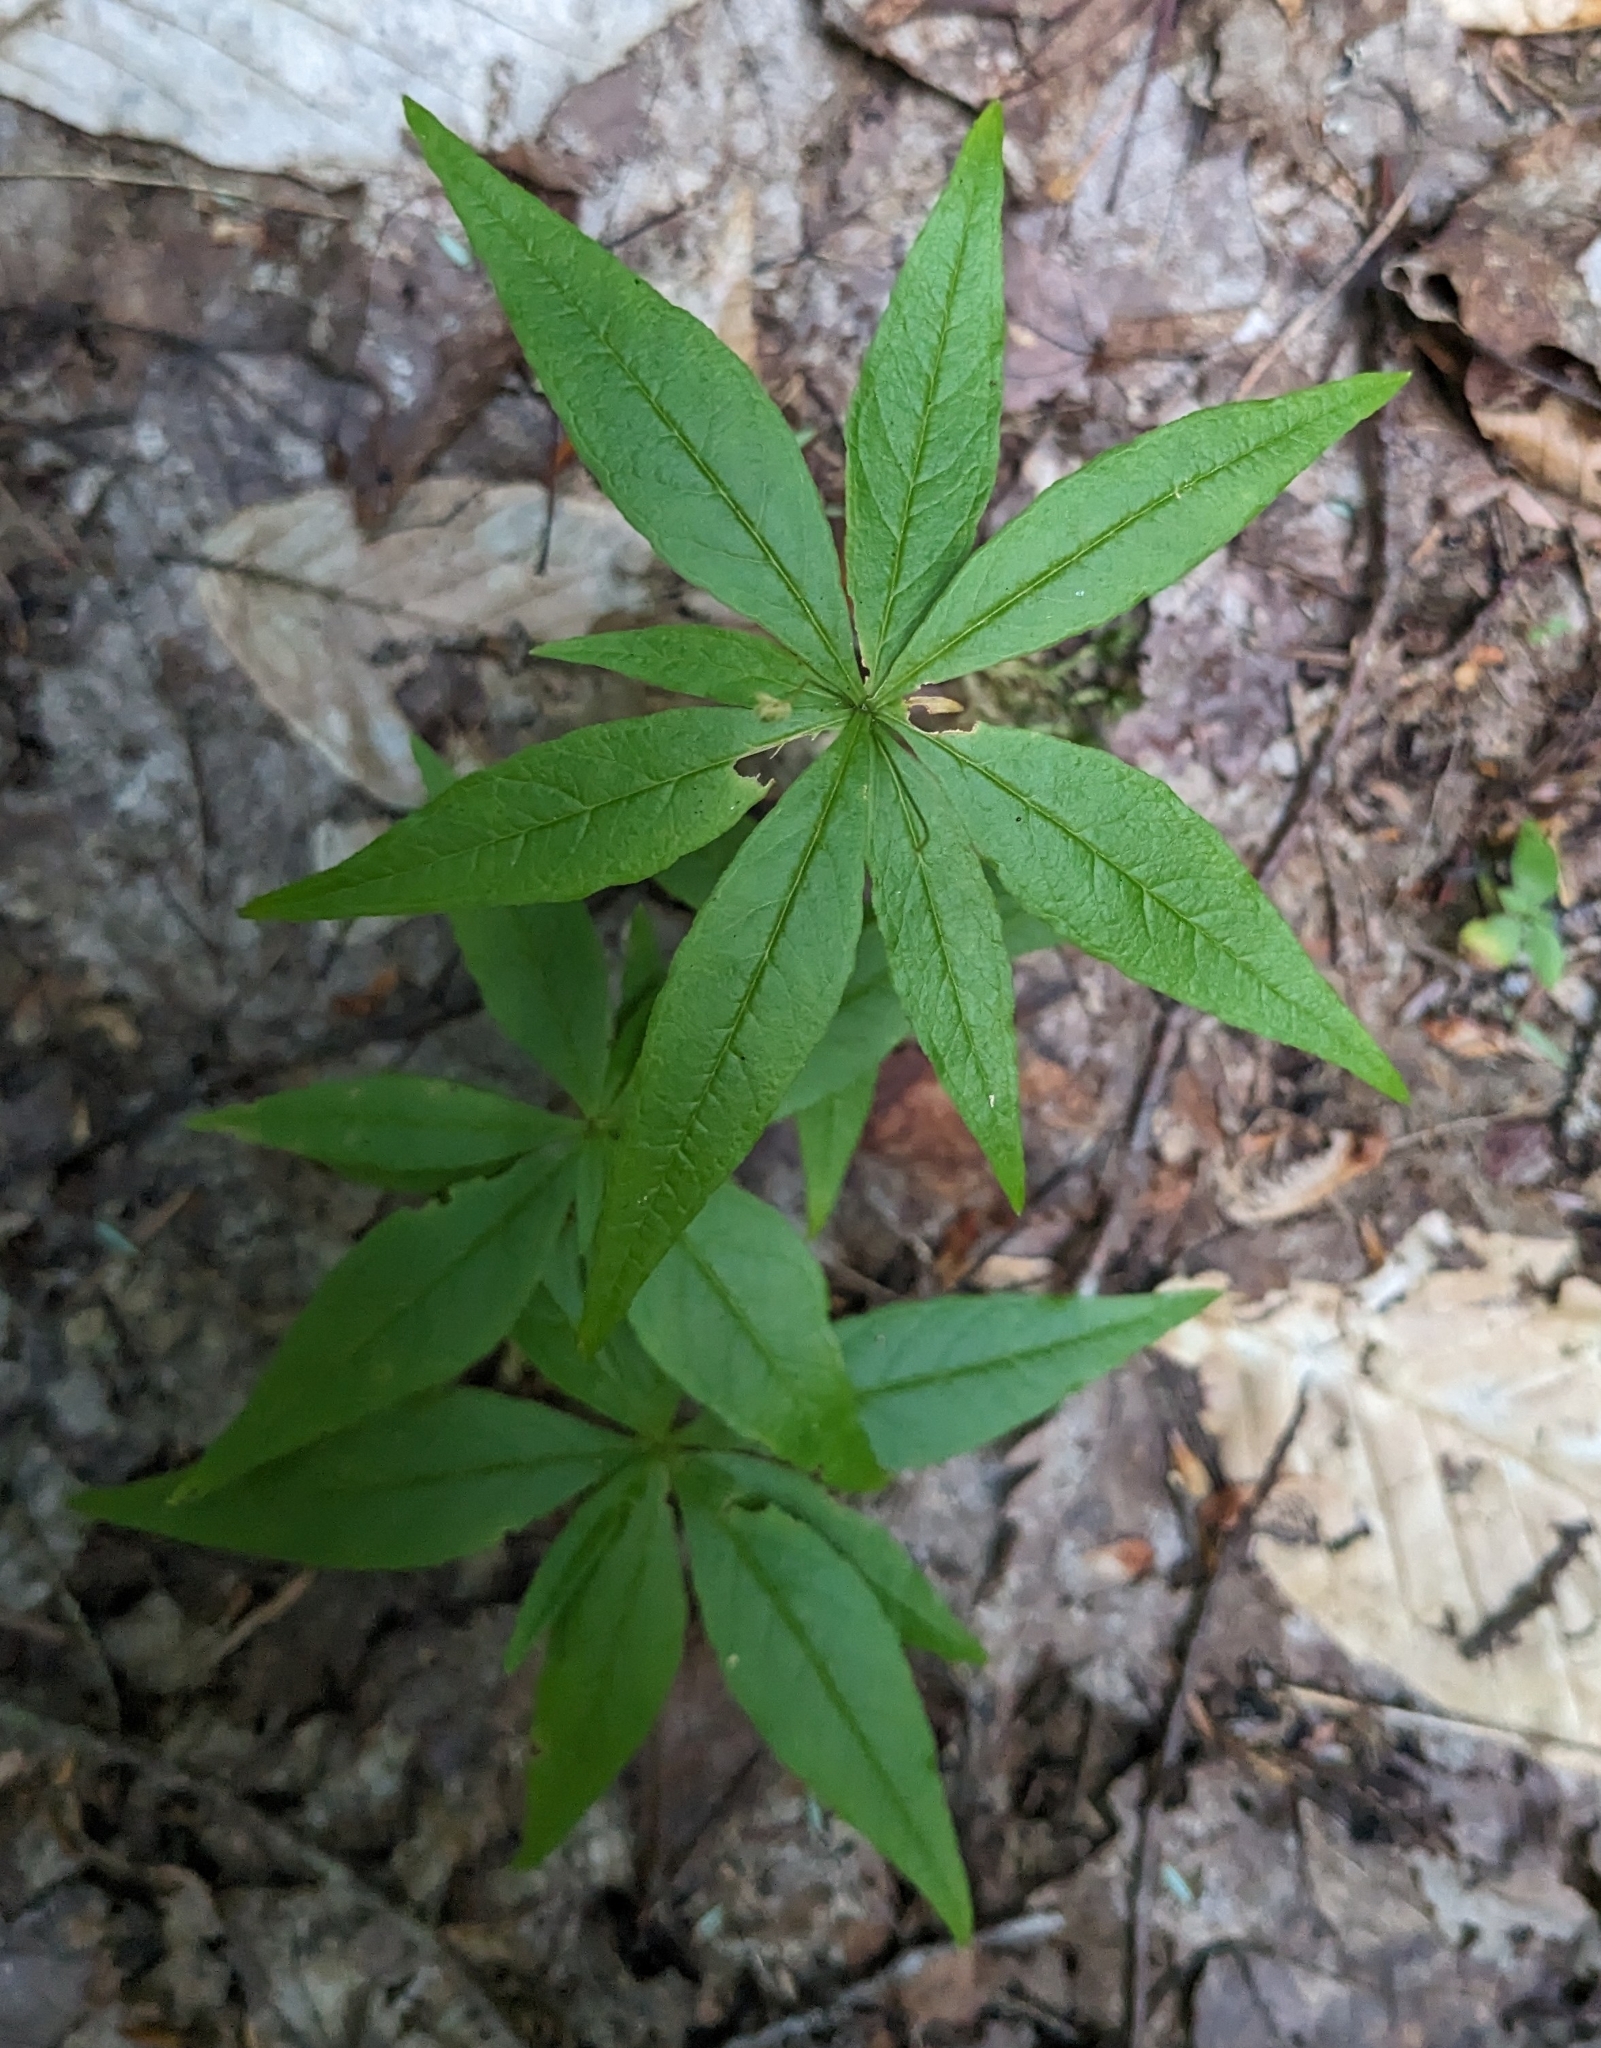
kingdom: Plantae
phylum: Tracheophyta
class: Magnoliopsida
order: Ericales
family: Primulaceae
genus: Lysimachia
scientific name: Lysimachia borealis
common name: American starflower
